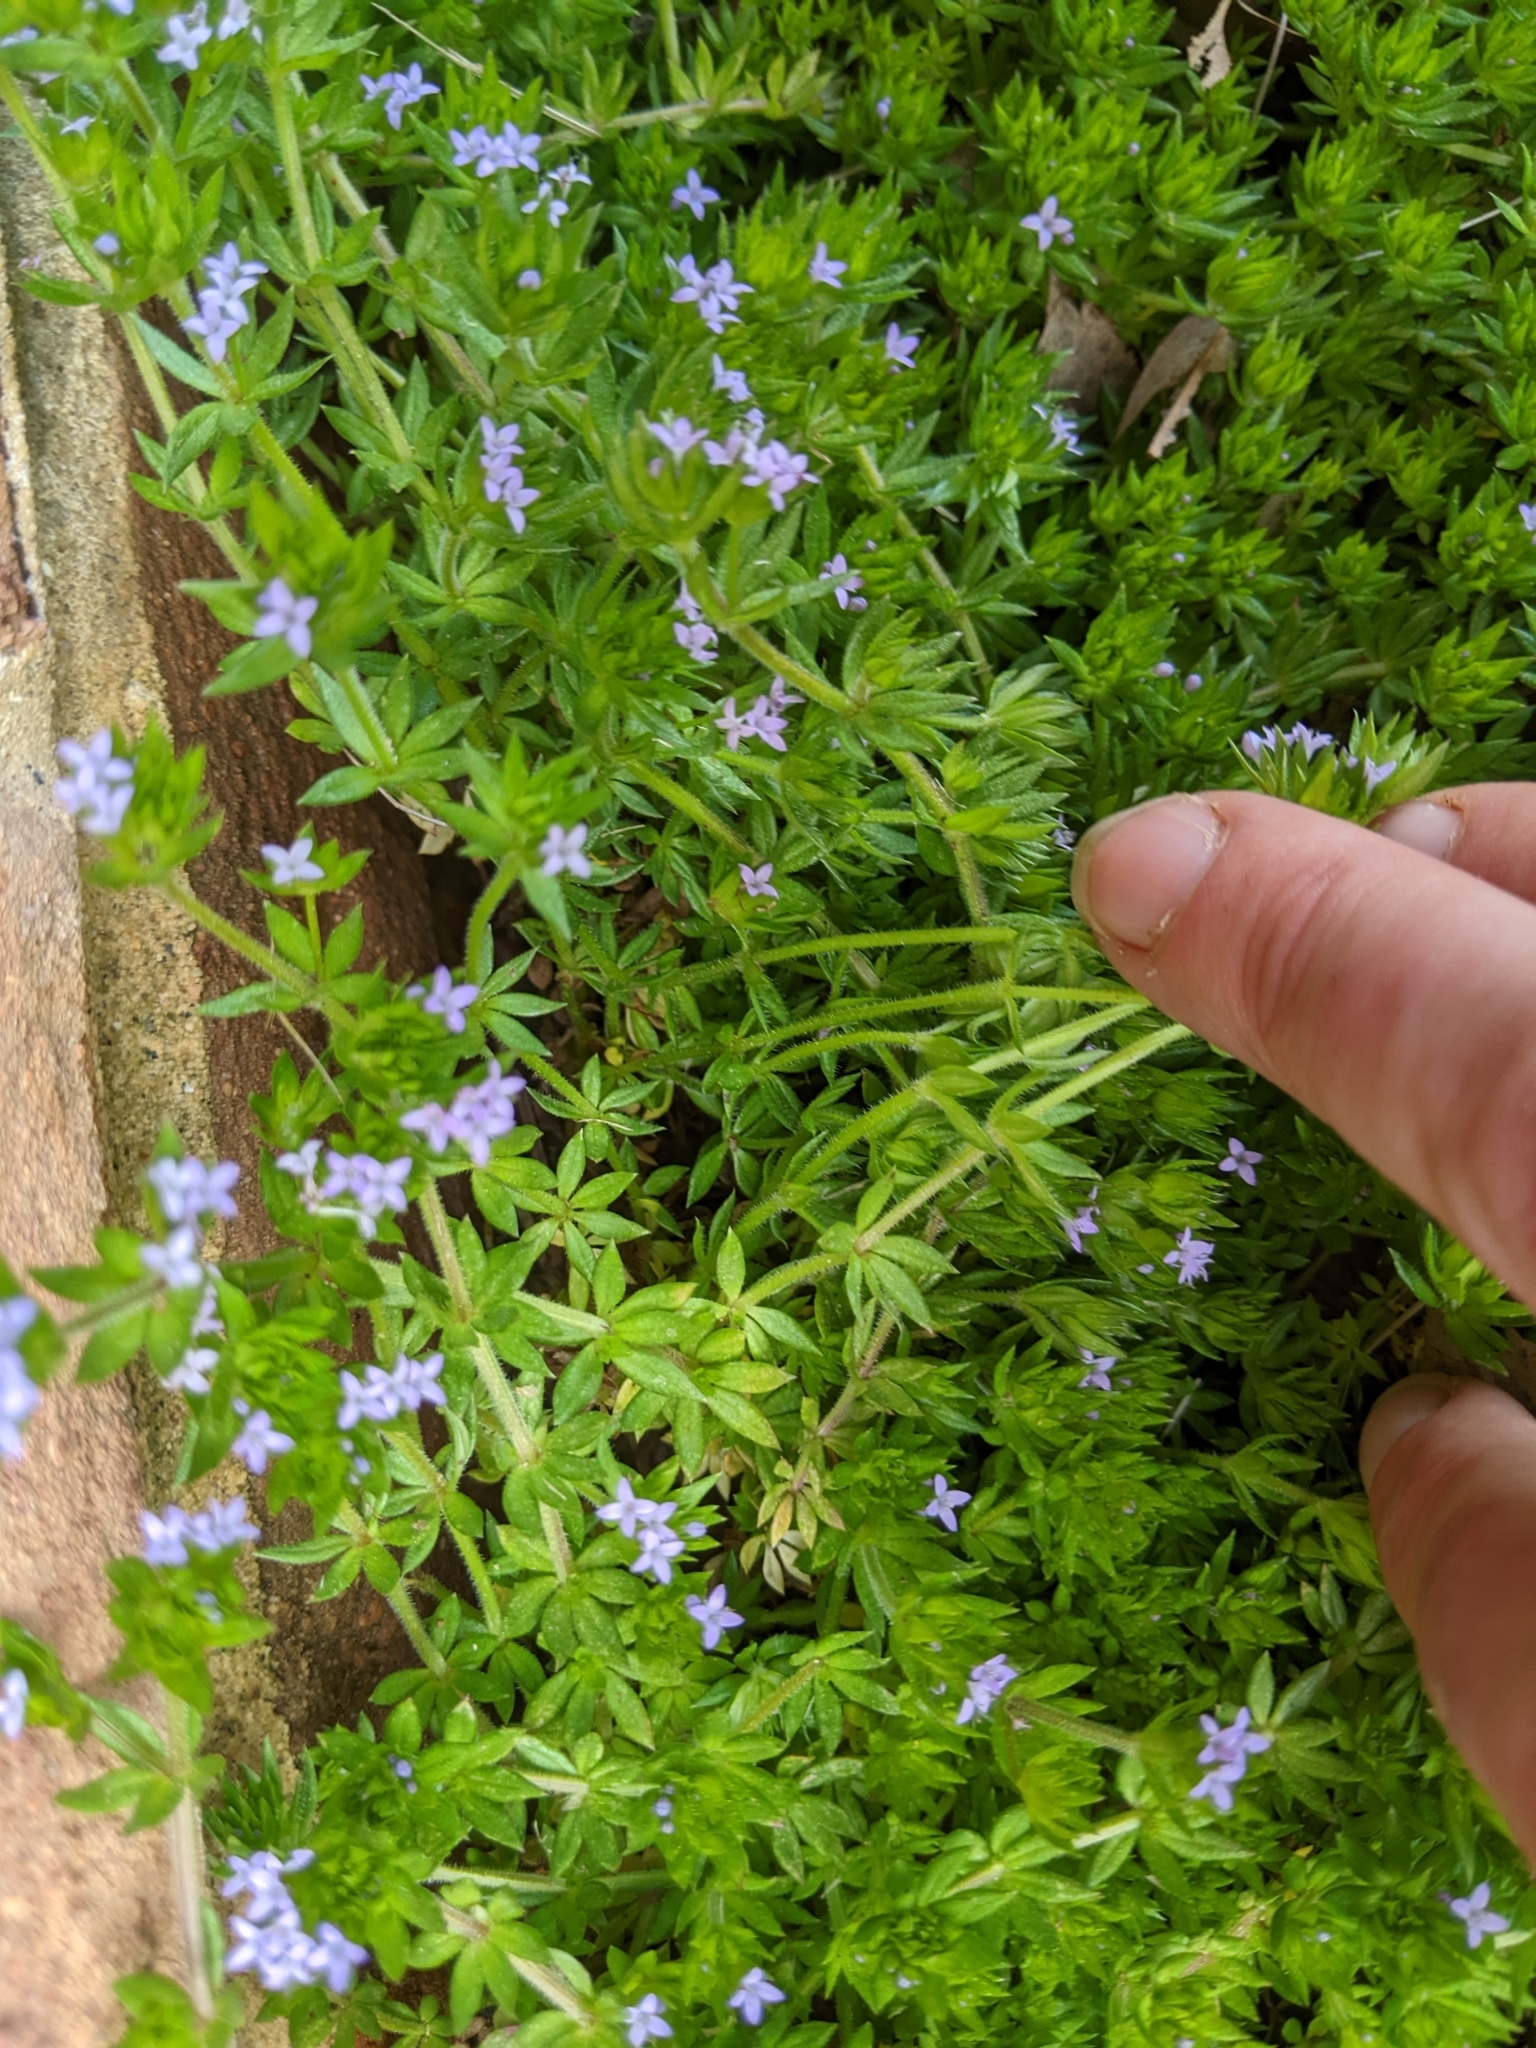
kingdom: Plantae
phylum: Tracheophyta
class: Magnoliopsida
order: Gentianales
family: Rubiaceae
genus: Sherardia
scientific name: Sherardia arvensis
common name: Field madder
